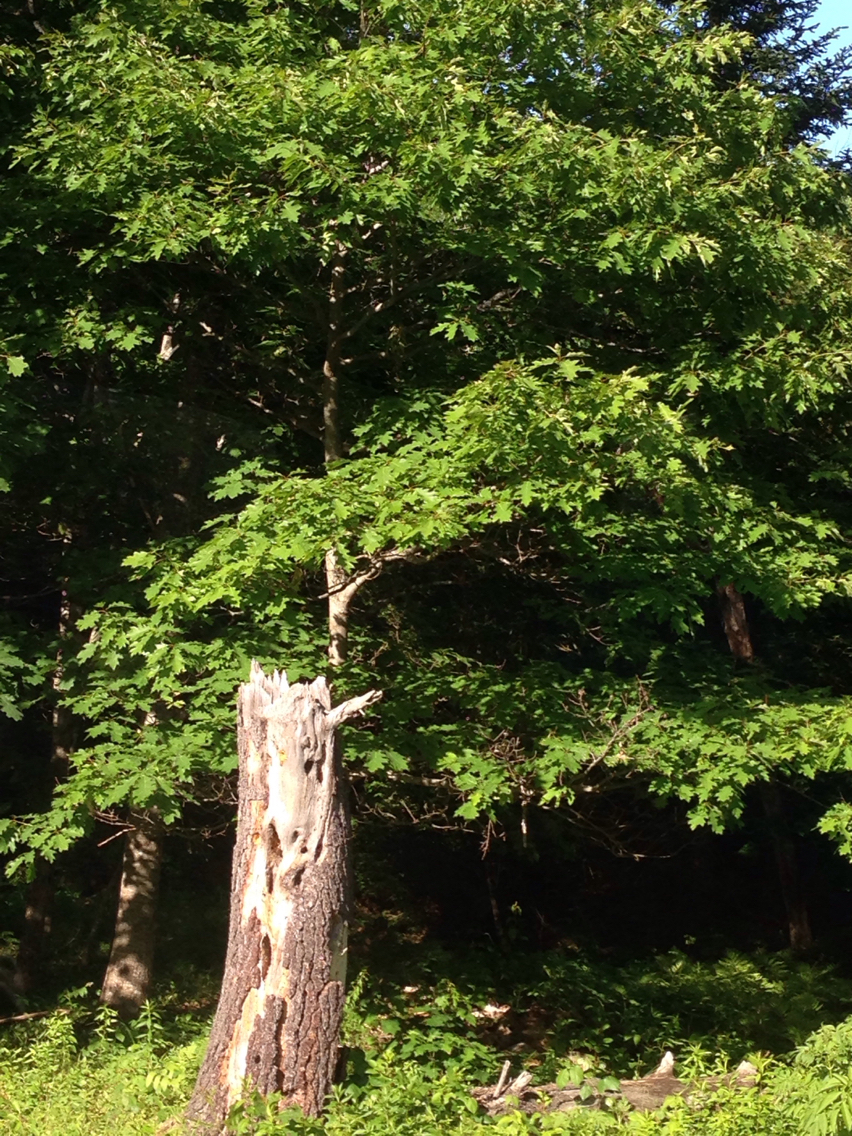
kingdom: Plantae
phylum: Tracheophyta
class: Magnoliopsida
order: Fagales
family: Fagaceae
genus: Quercus
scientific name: Quercus rubra
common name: Red oak
